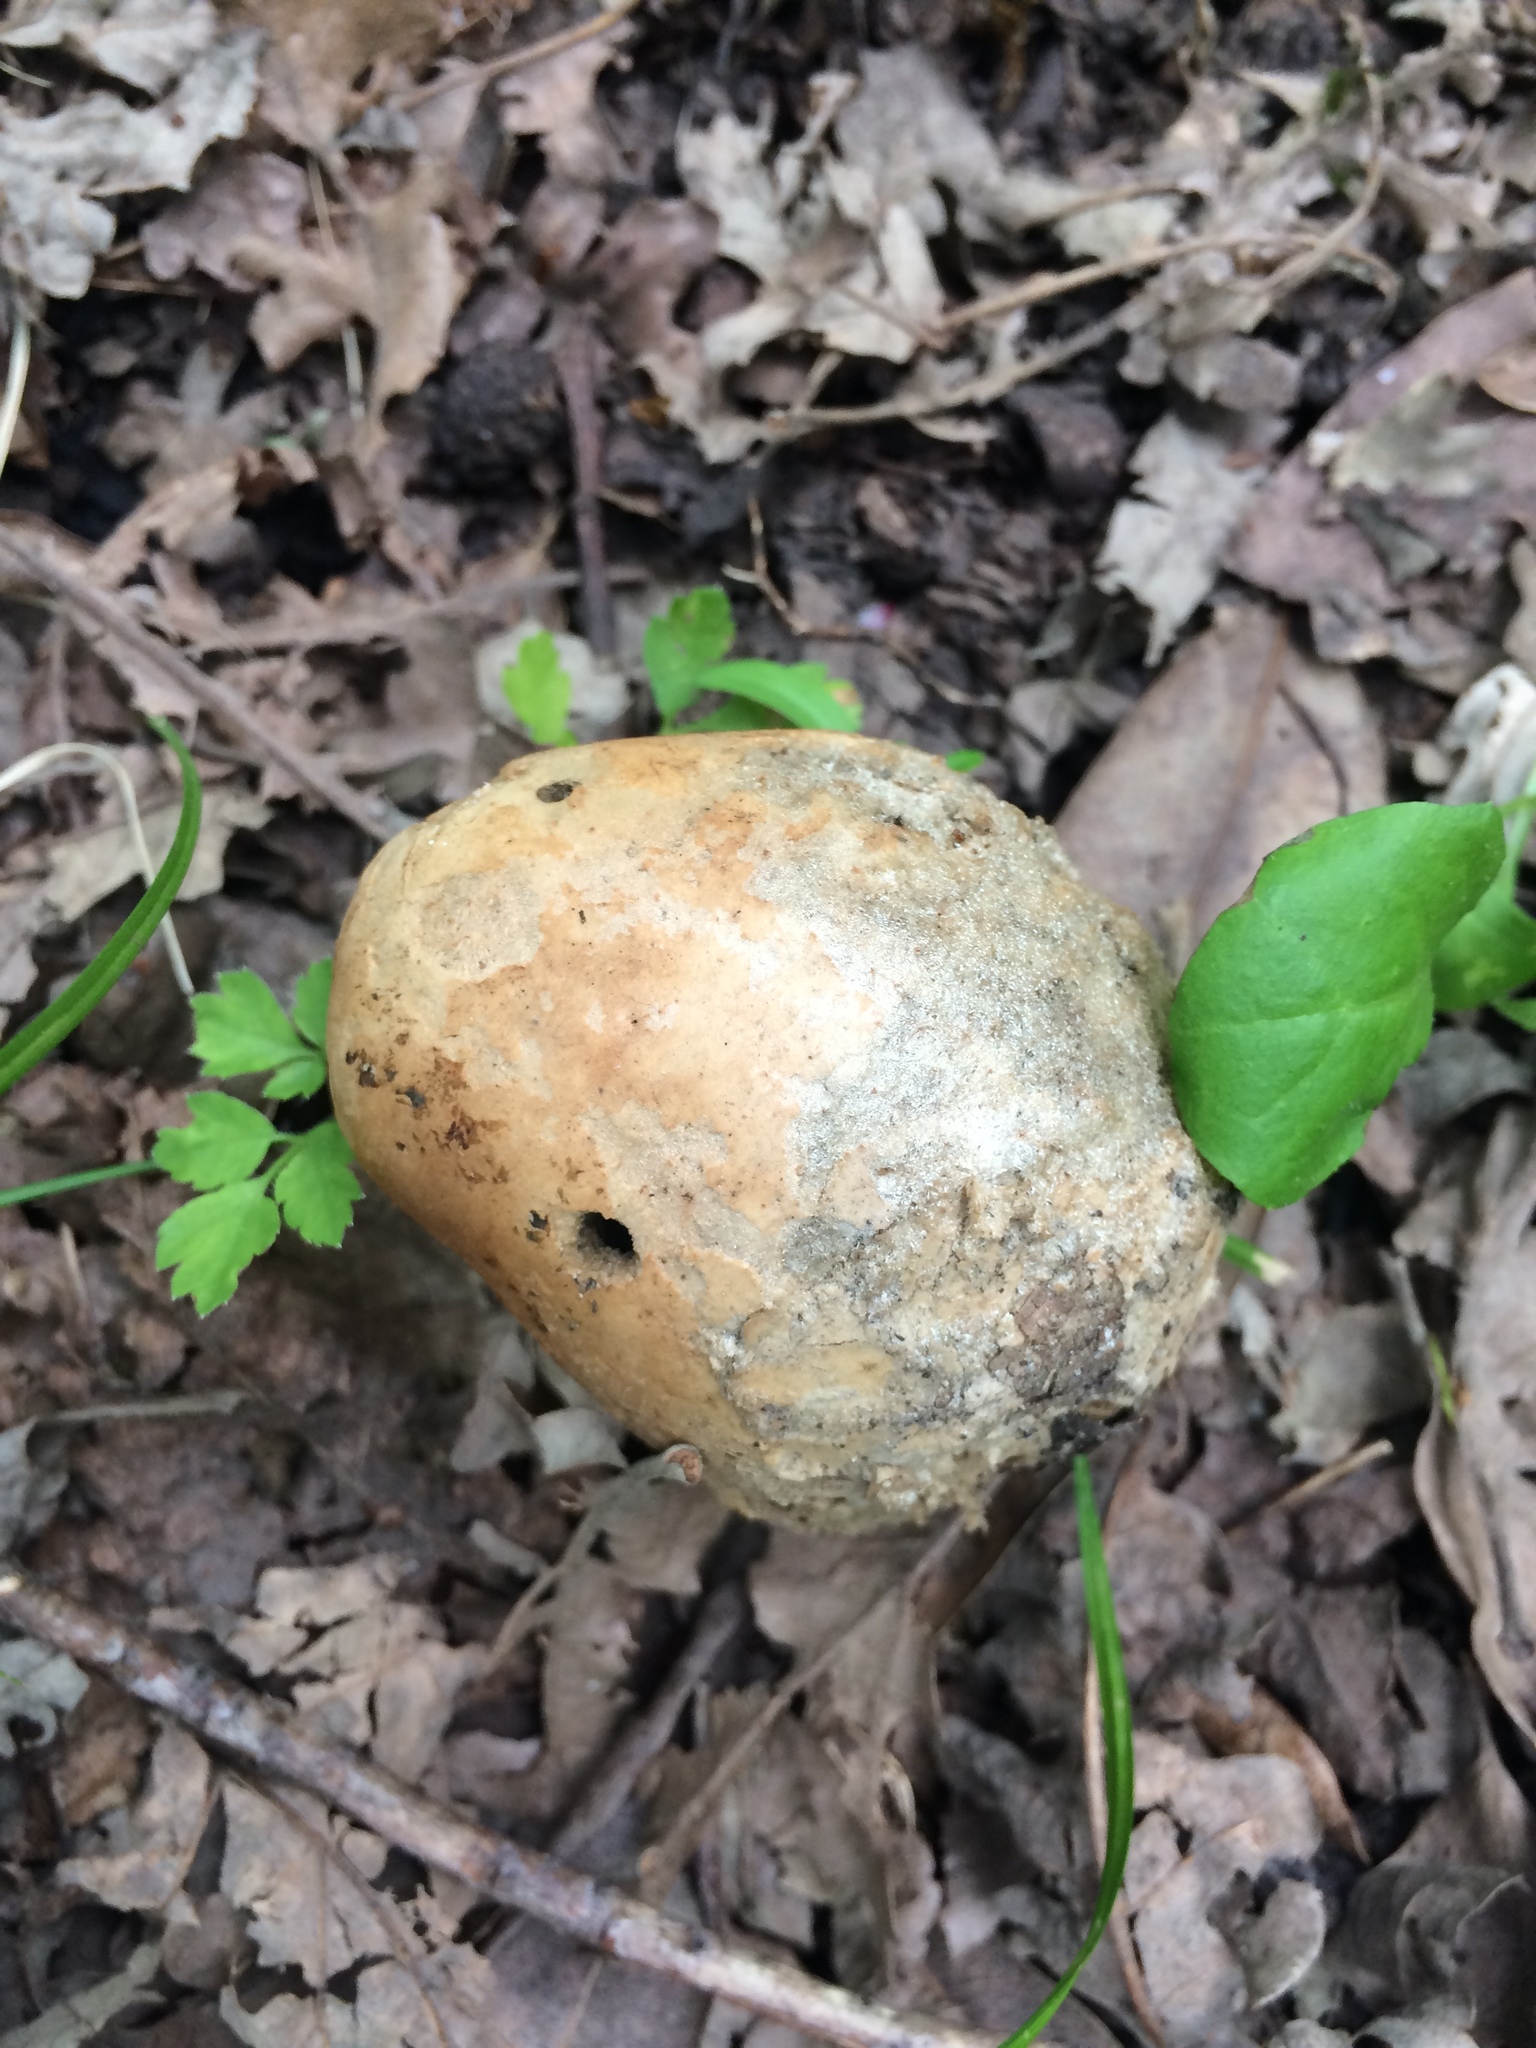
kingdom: Animalia
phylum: Arthropoda
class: Insecta
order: Hymenoptera
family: Cynipidae
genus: Andricus
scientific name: Andricus quercuscalifornicus
